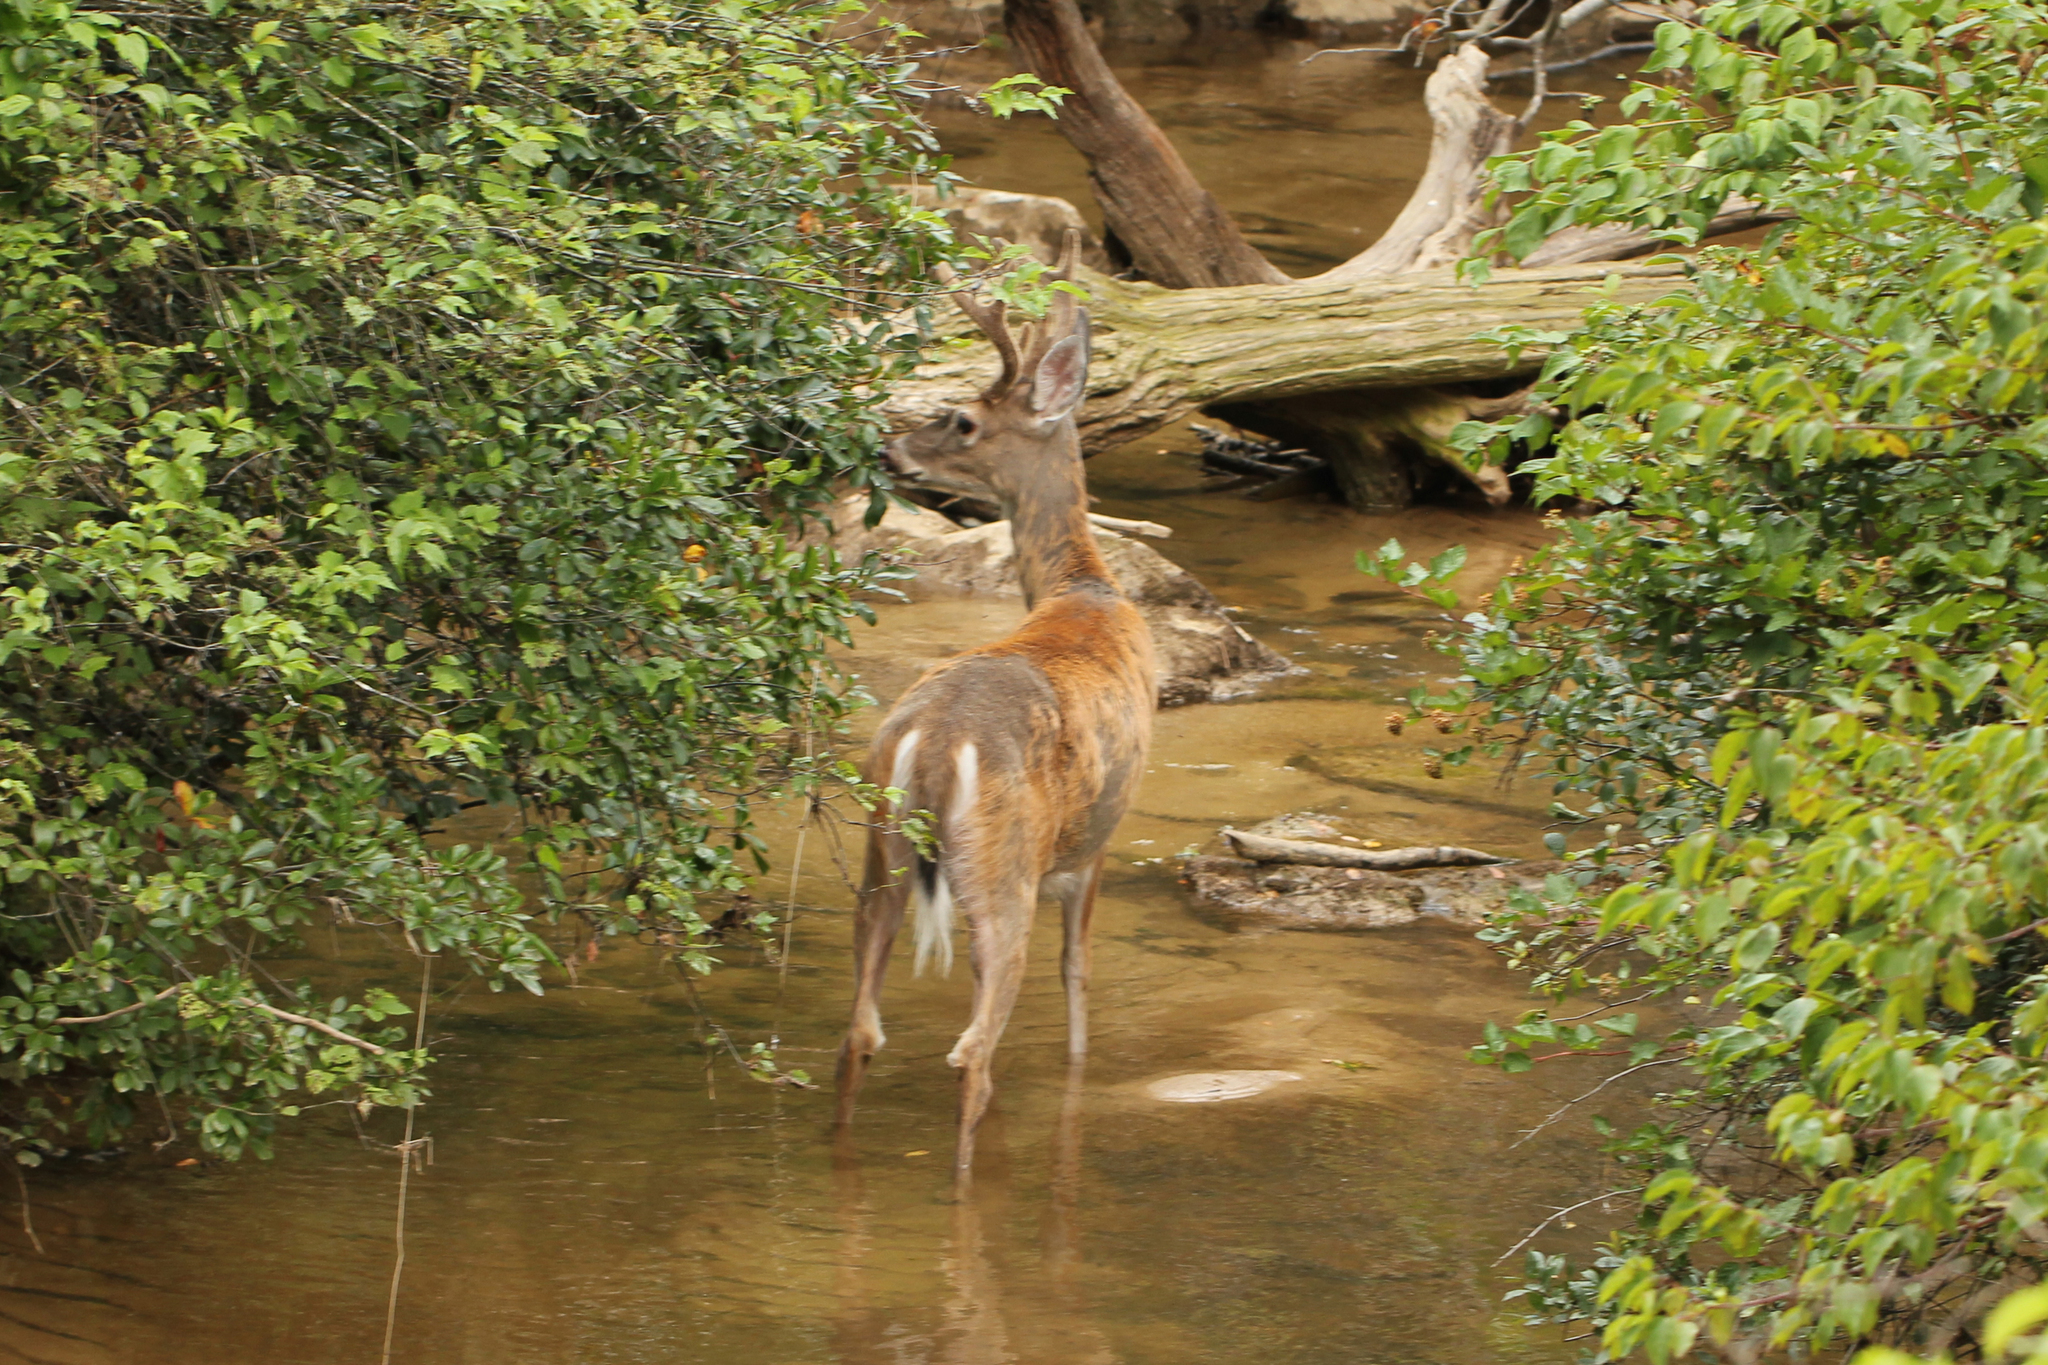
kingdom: Animalia
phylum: Chordata
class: Mammalia
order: Artiodactyla
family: Cervidae
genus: Odocoileus
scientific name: Odocoileus virginianus
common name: White-tailed deer
